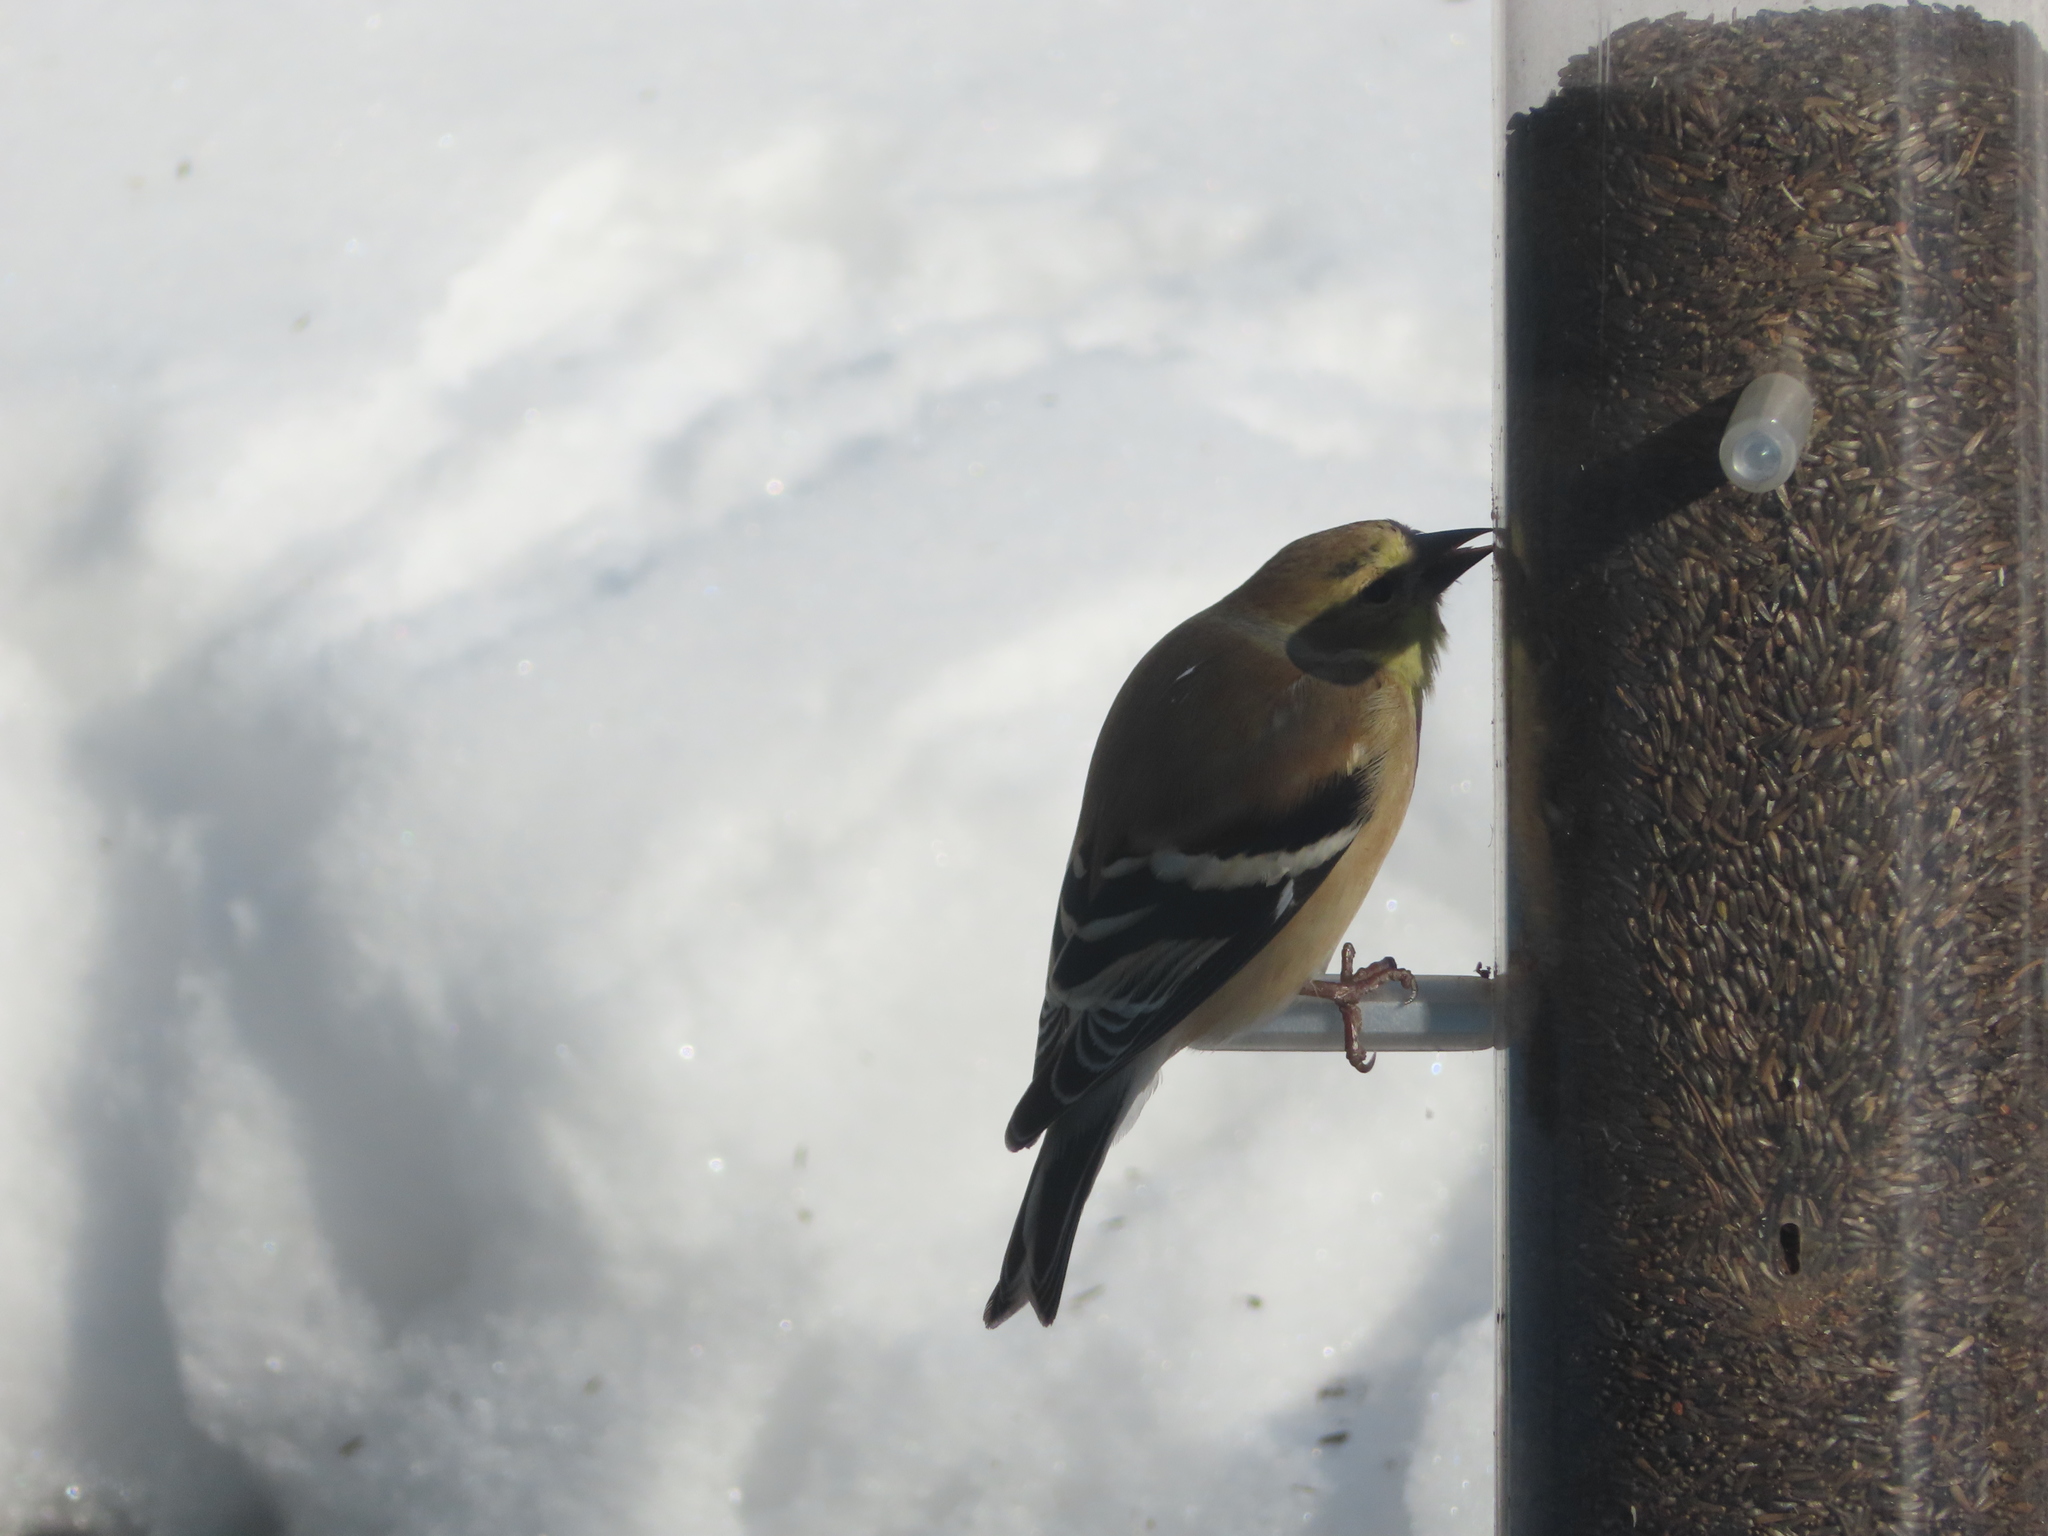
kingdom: Animalia
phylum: Chordata
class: Aves
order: Passeriformes
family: Fringillidae
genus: Spinus
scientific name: Spinus tristis
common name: American goldfinch
